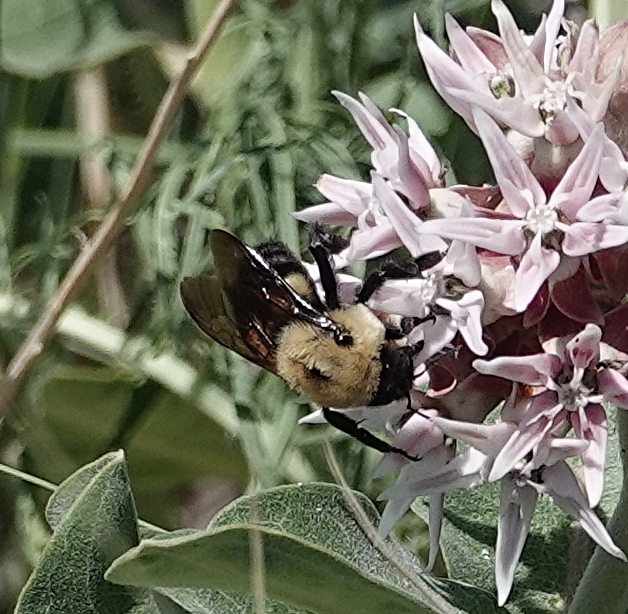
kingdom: Animalia
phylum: Arthropoda
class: Insecta
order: Hymenoptera
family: Apidae
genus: Bombus
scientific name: Bombus griseocollis
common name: Brown-belted bumble bee
